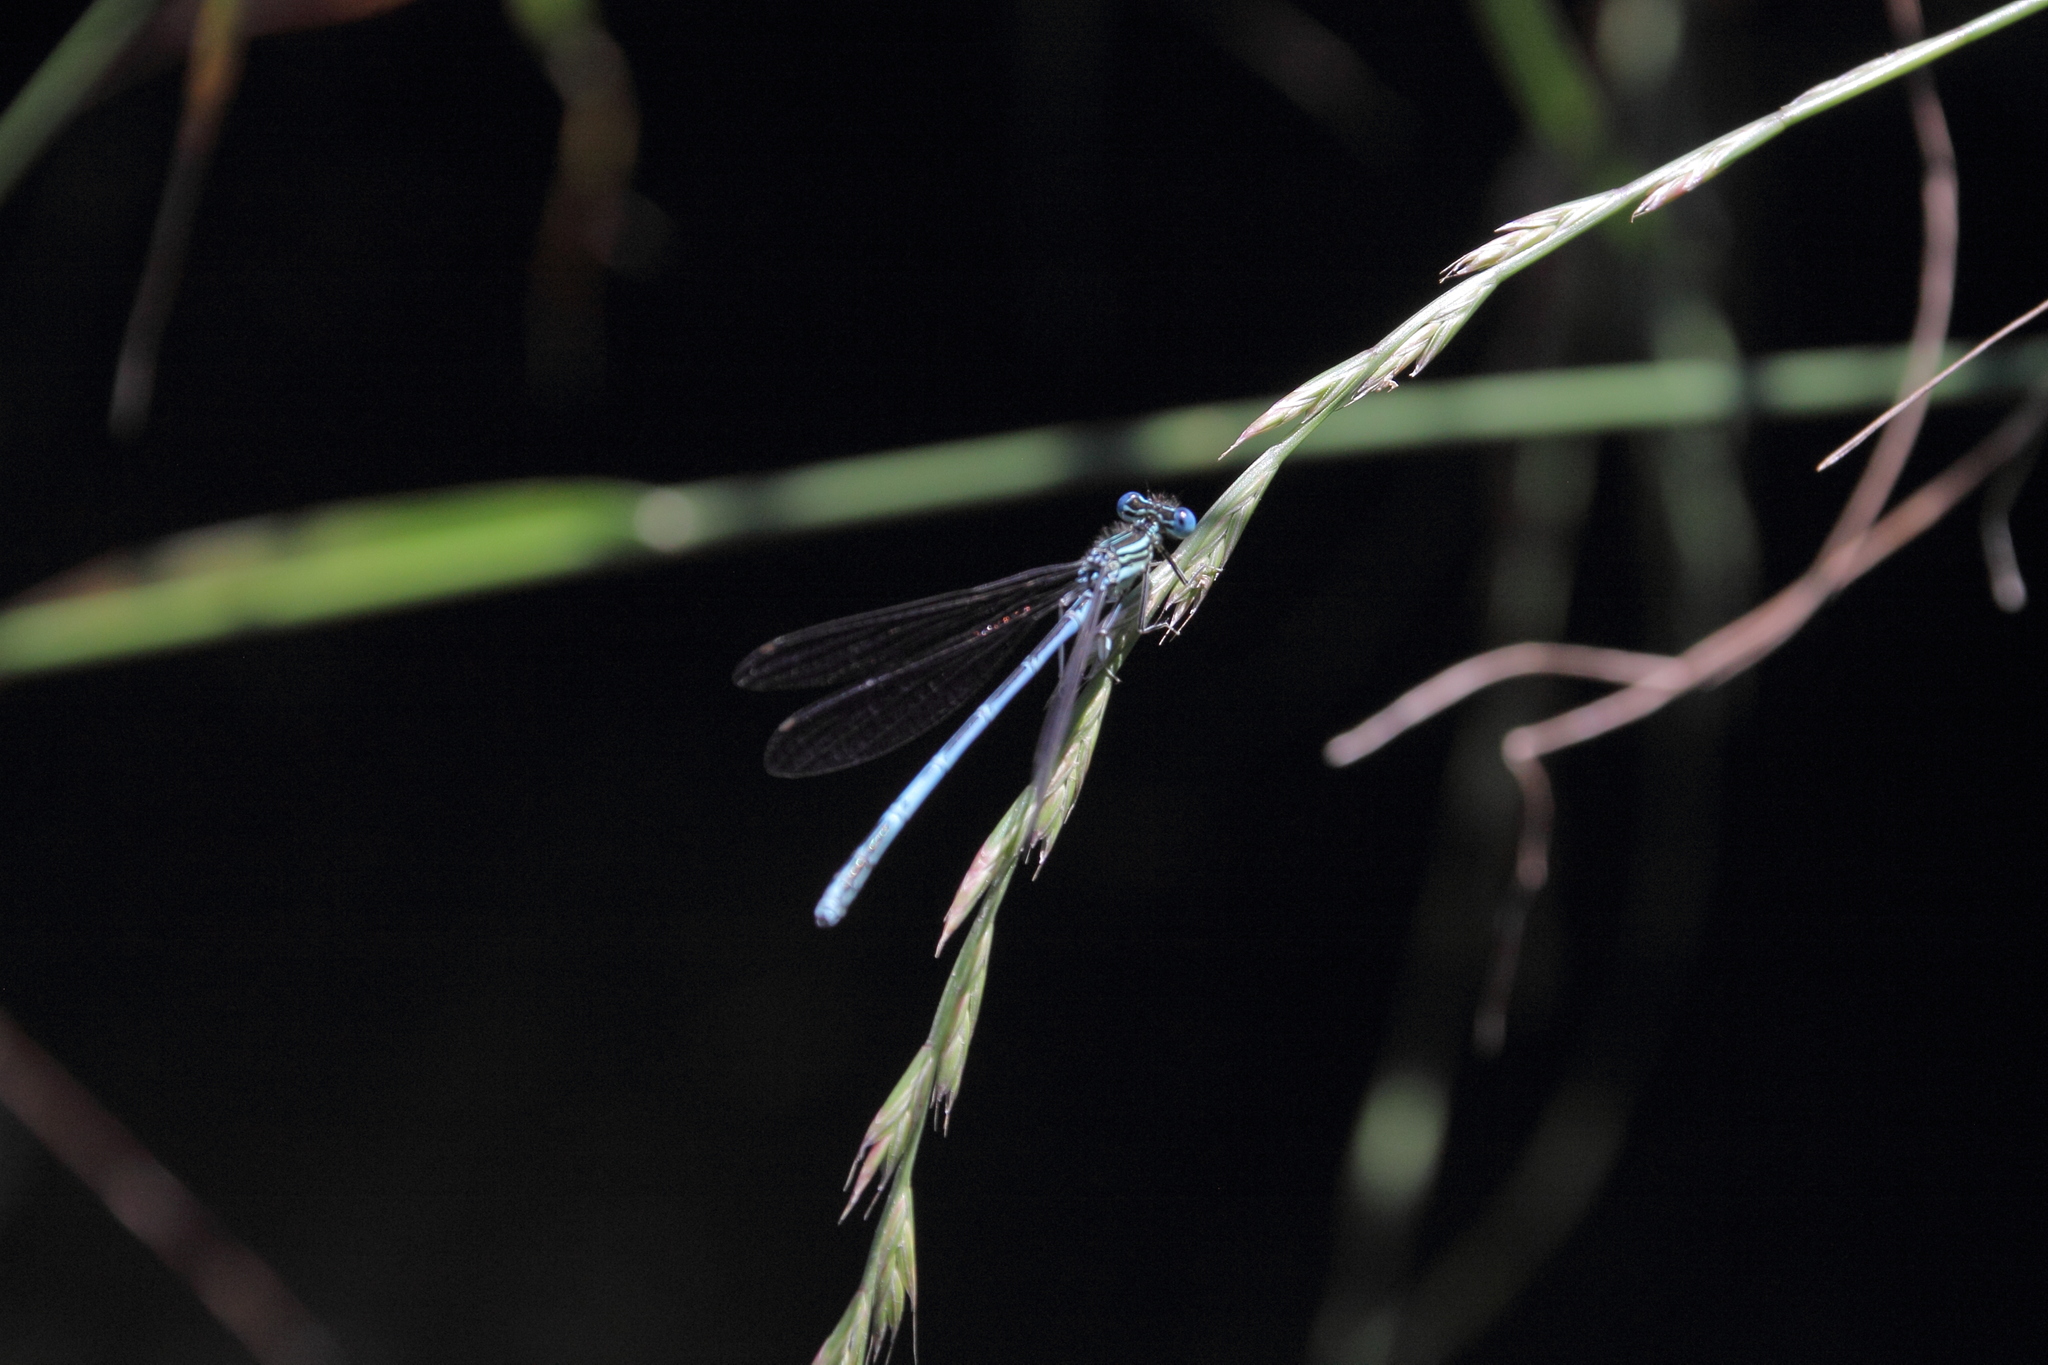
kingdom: Animalia
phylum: Arthropoda
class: Insecta
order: Odonata
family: Platycnemididae
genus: Platycnemis
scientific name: Platycnemis pennipes
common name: White-legged damselfly
